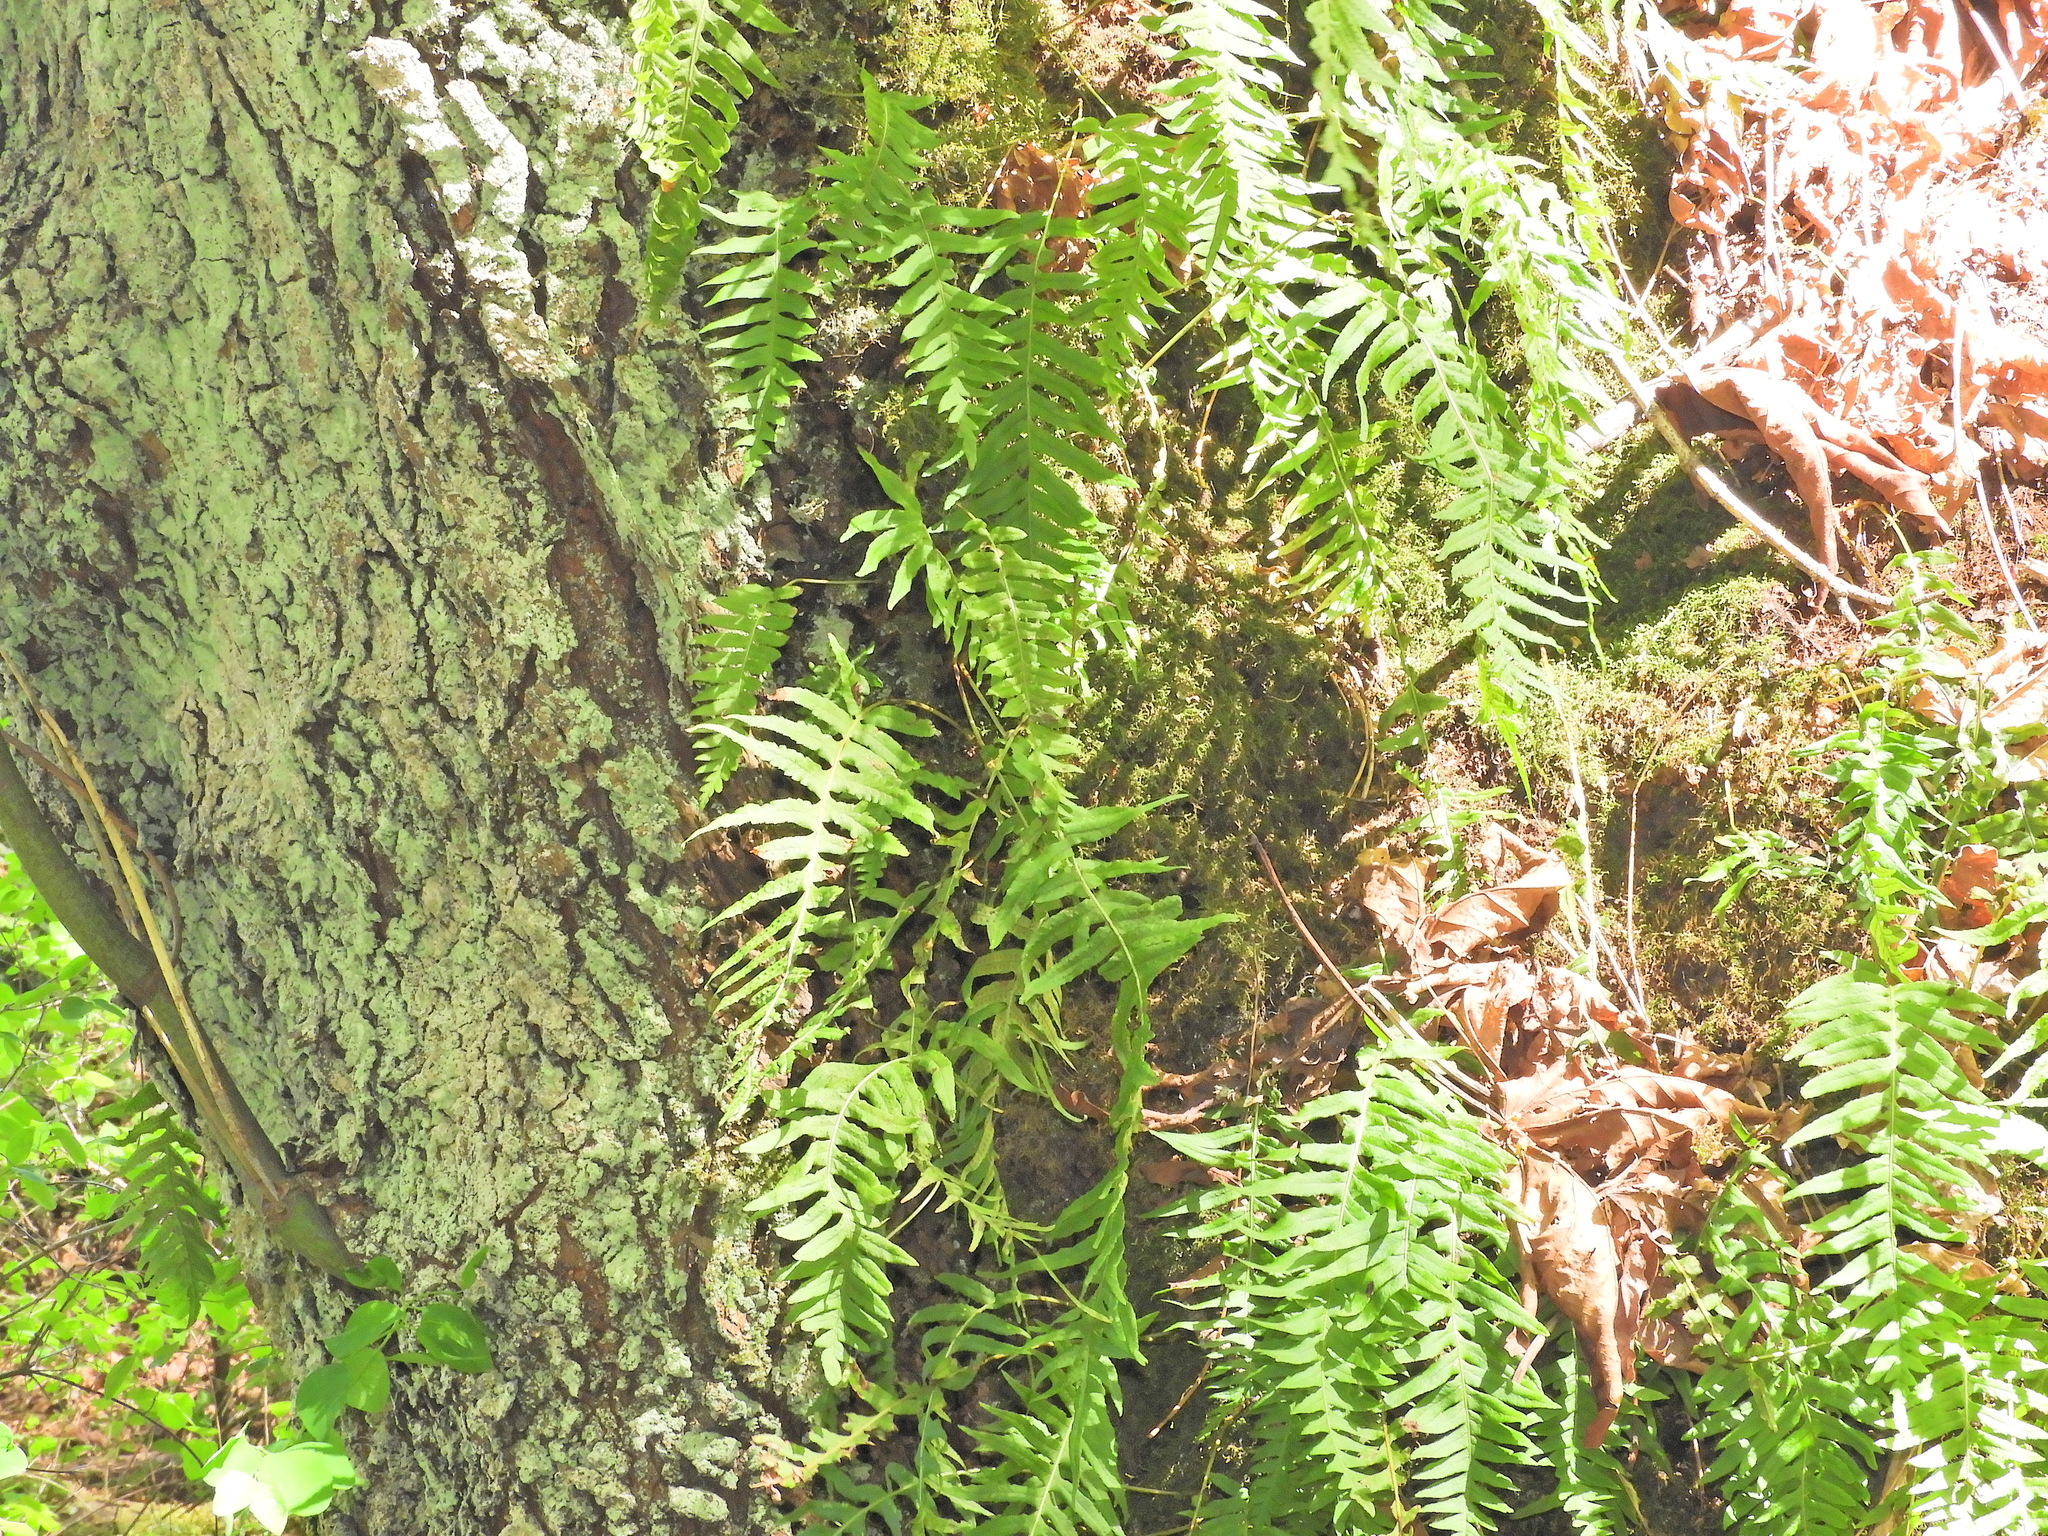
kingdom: Plantae
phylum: Tracheophyta
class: Polypodiopsida
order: Polypodiales
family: Polypodiaceae
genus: Polypodium
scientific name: Polypodium glycyrrhiza
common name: Licorice fern
